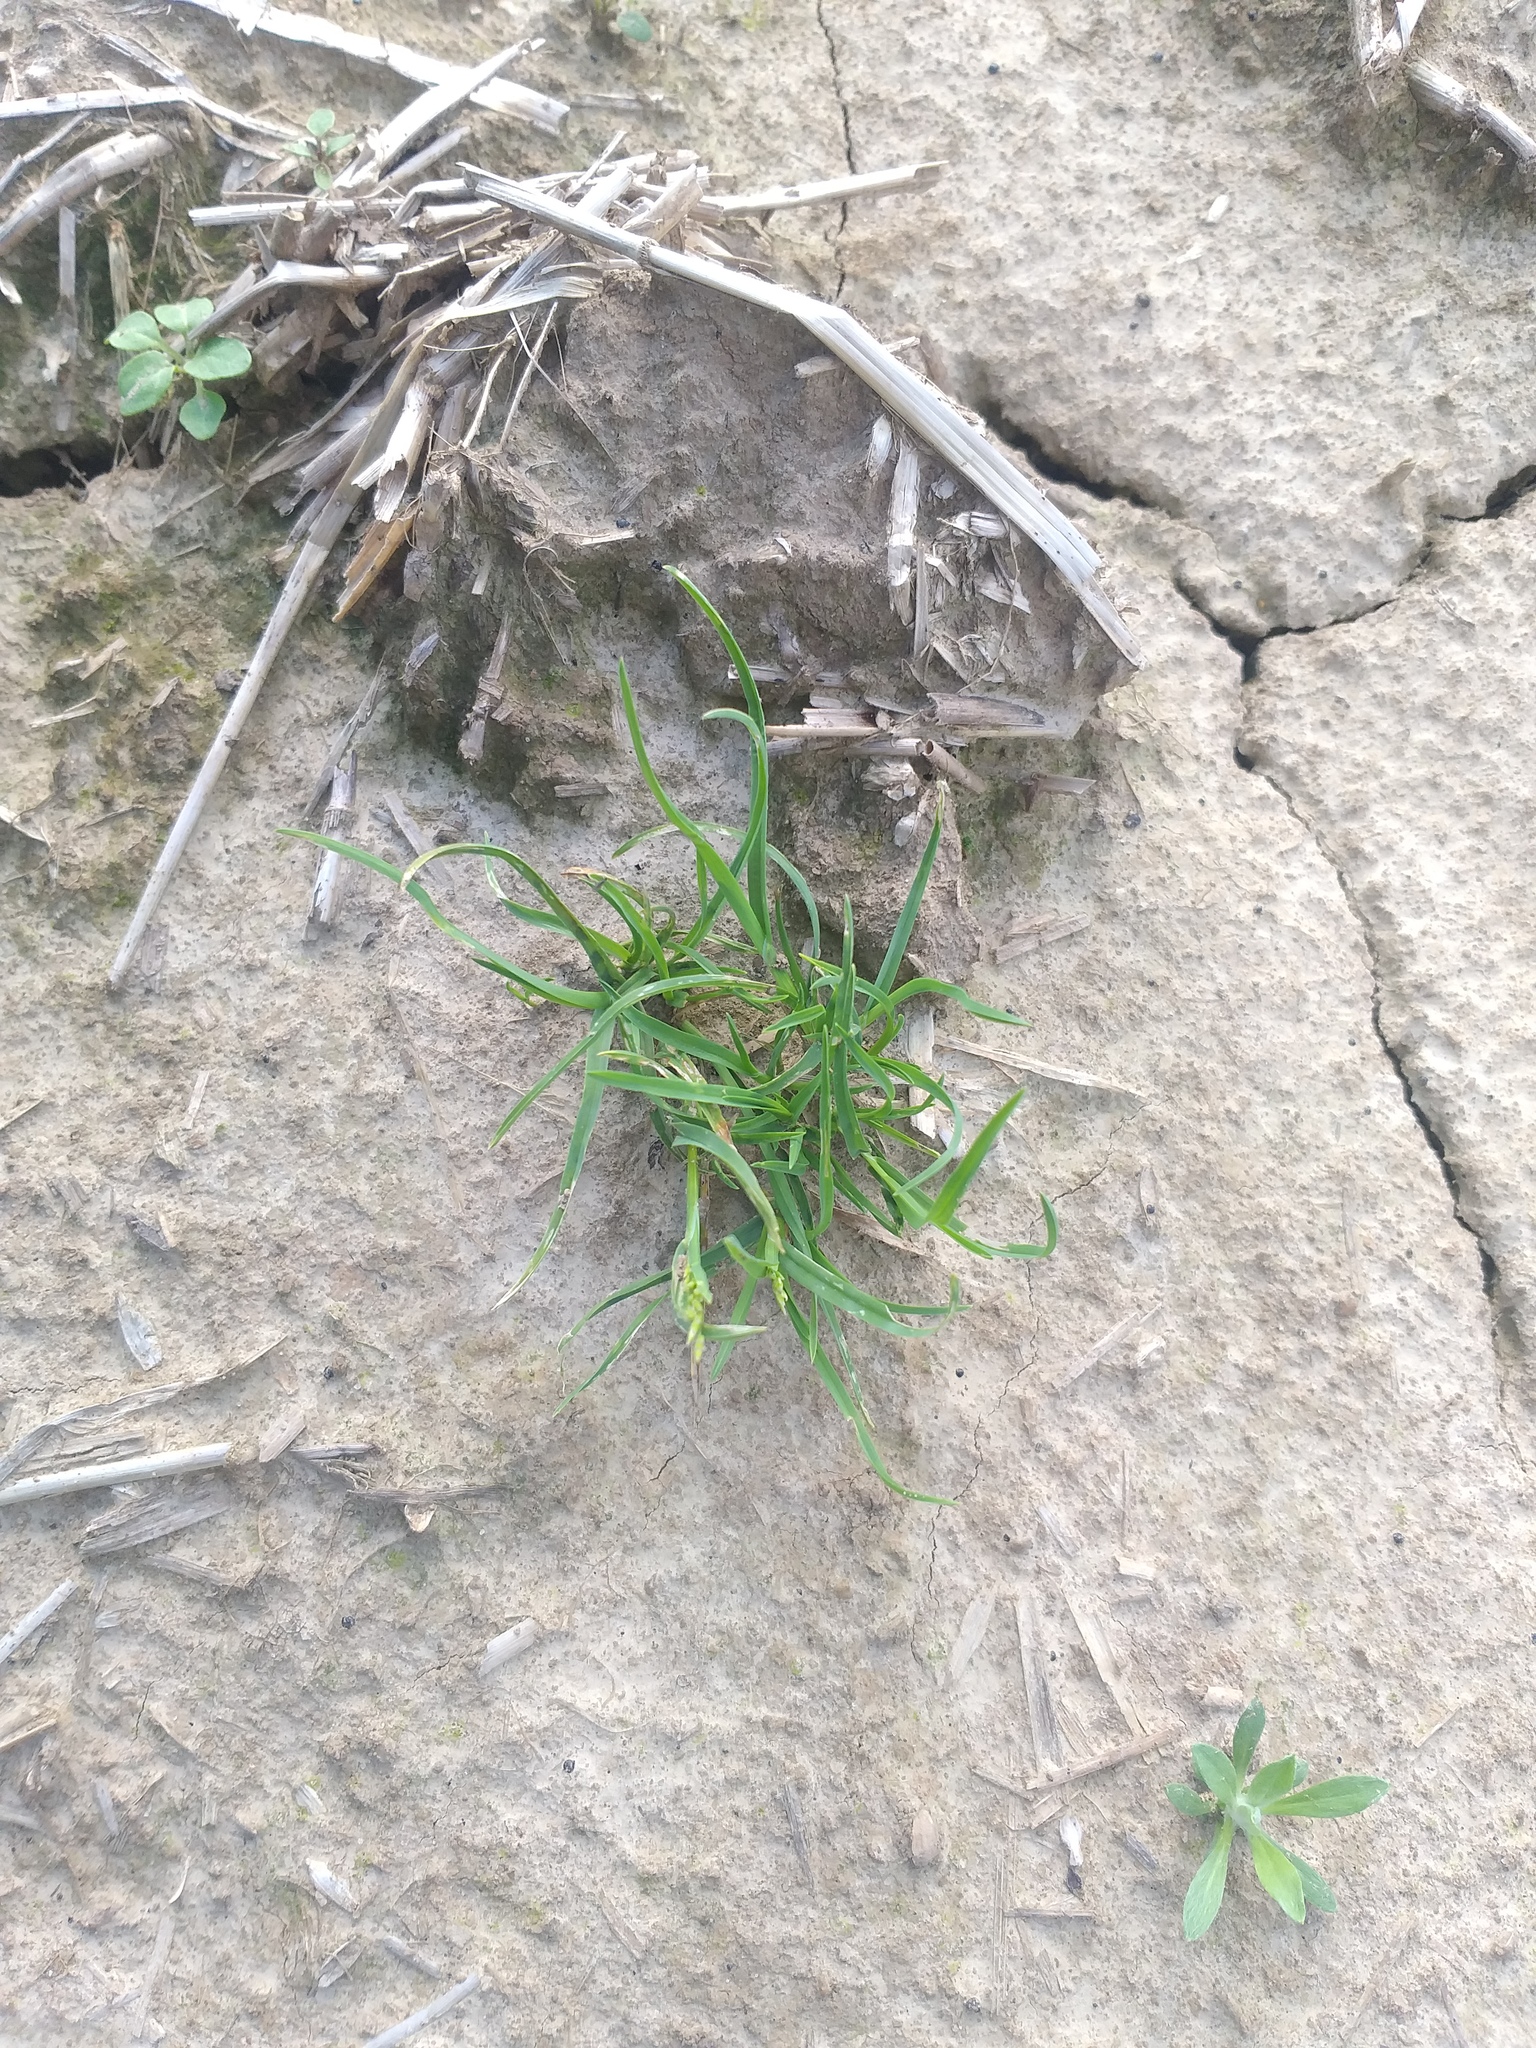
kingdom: Plantae
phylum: Tracheophyta
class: Liliopsida
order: Poales
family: Poaceae
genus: Poa
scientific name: Poa annua
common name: Annual bluegrass
